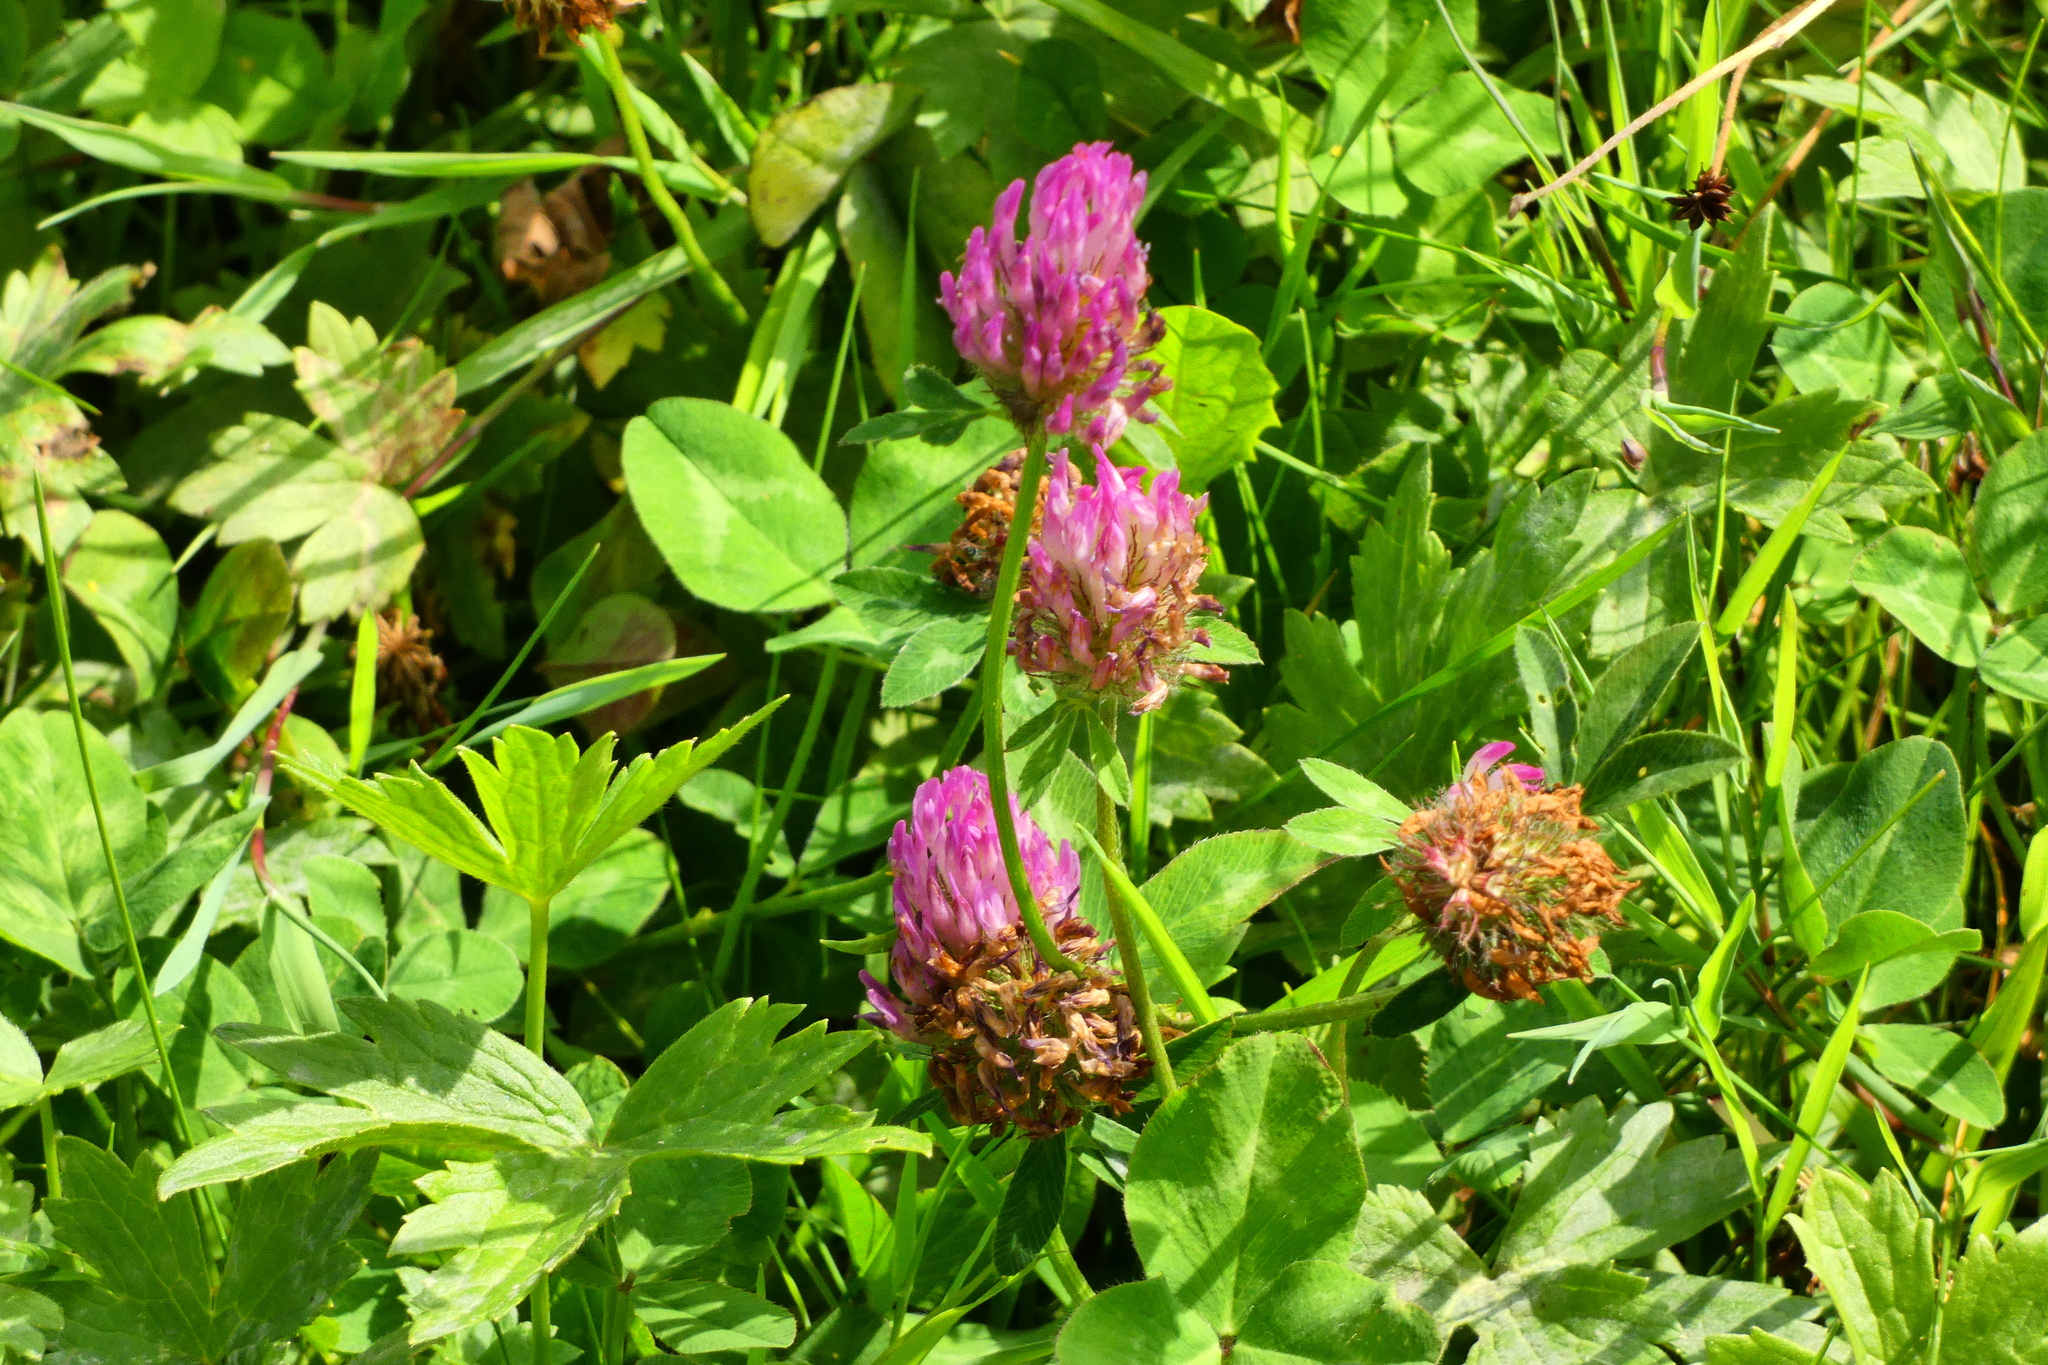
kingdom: Plantae
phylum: Tracheophyta
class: Magnoliopsida
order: Fabales
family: Fabaceae
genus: Trifolium
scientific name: Trifolium pratense
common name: Red clover
